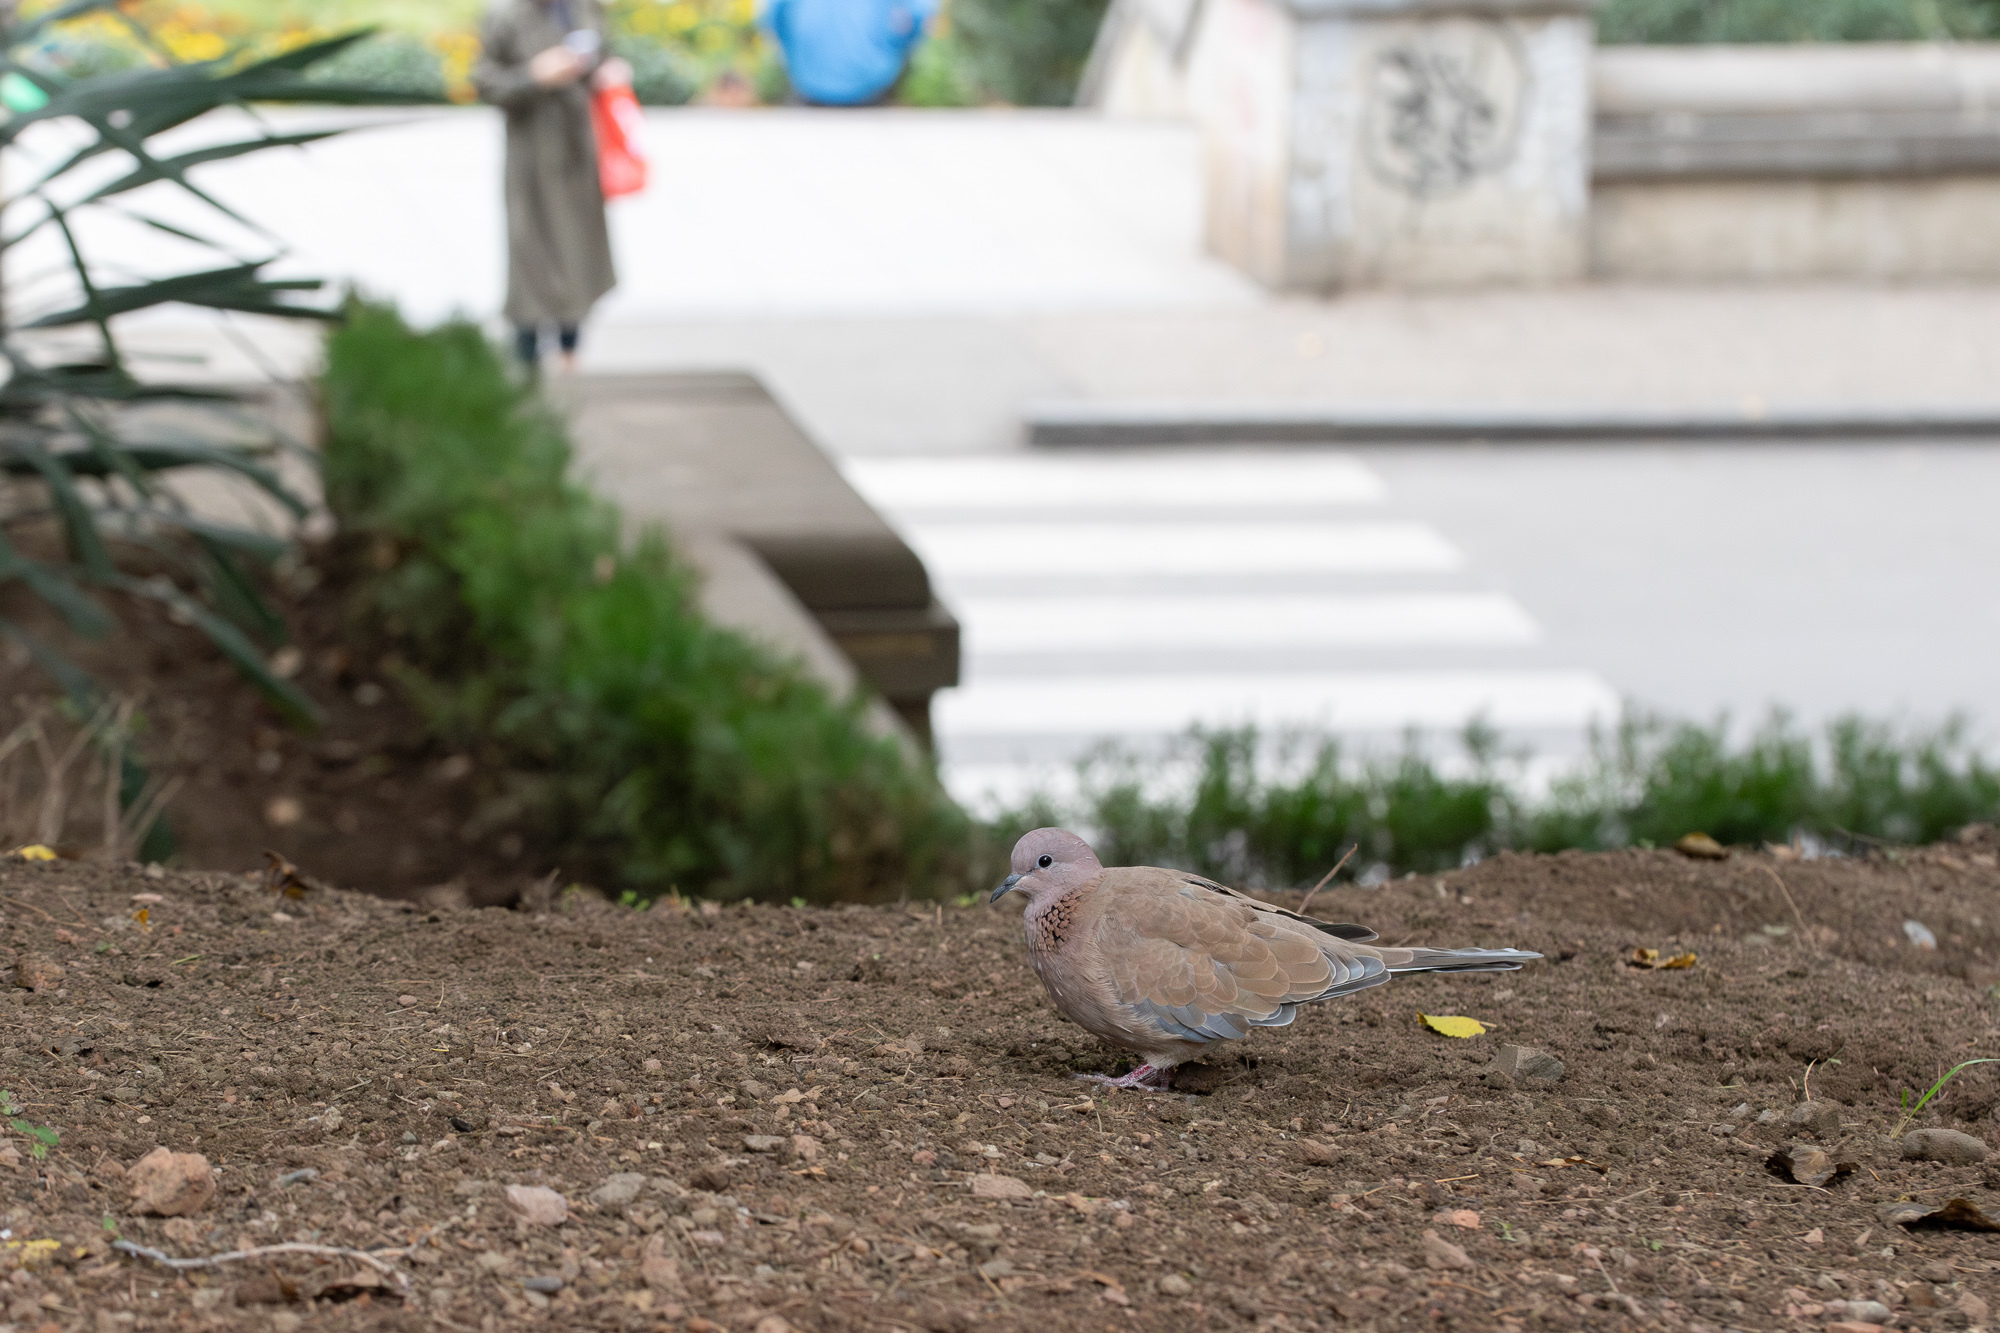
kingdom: Animalia
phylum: Chordata
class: Aves
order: Columbiformes
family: Columbidae
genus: Spilopelia
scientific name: Spilopelia senegalensis
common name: Laughing dove
